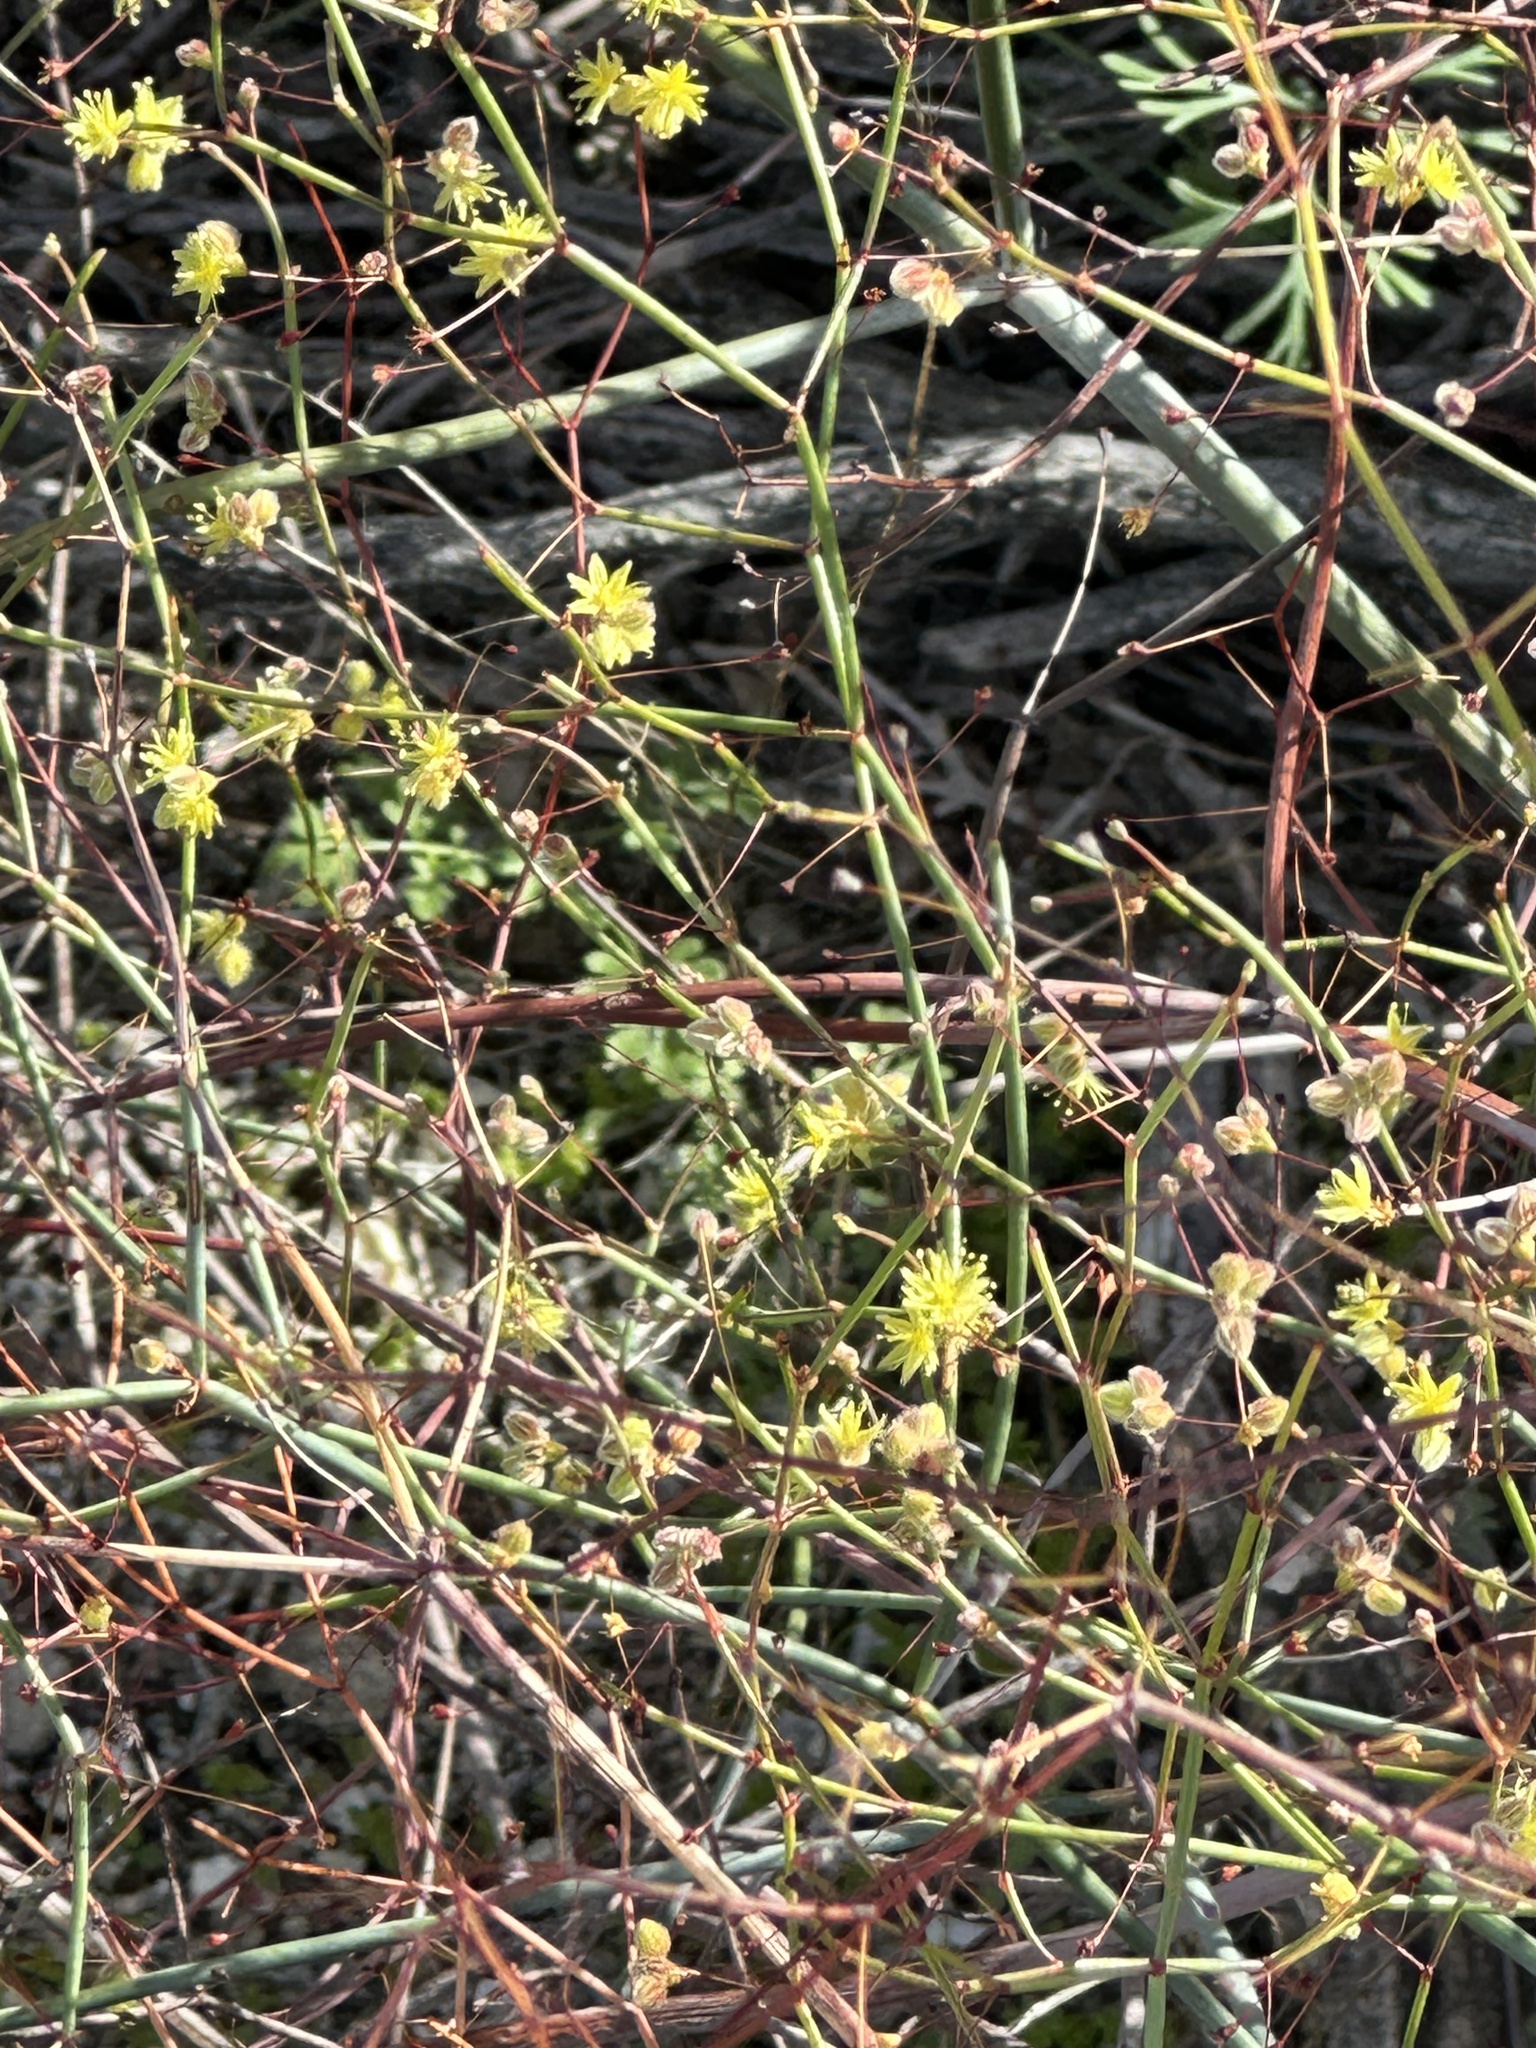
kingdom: Plantae
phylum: Tracheophyta
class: Magnoliopsida
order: Caryophyllales
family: Polygonaceae
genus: Eriogonum
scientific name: Eriogonum inflatum
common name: Desert trumpet
